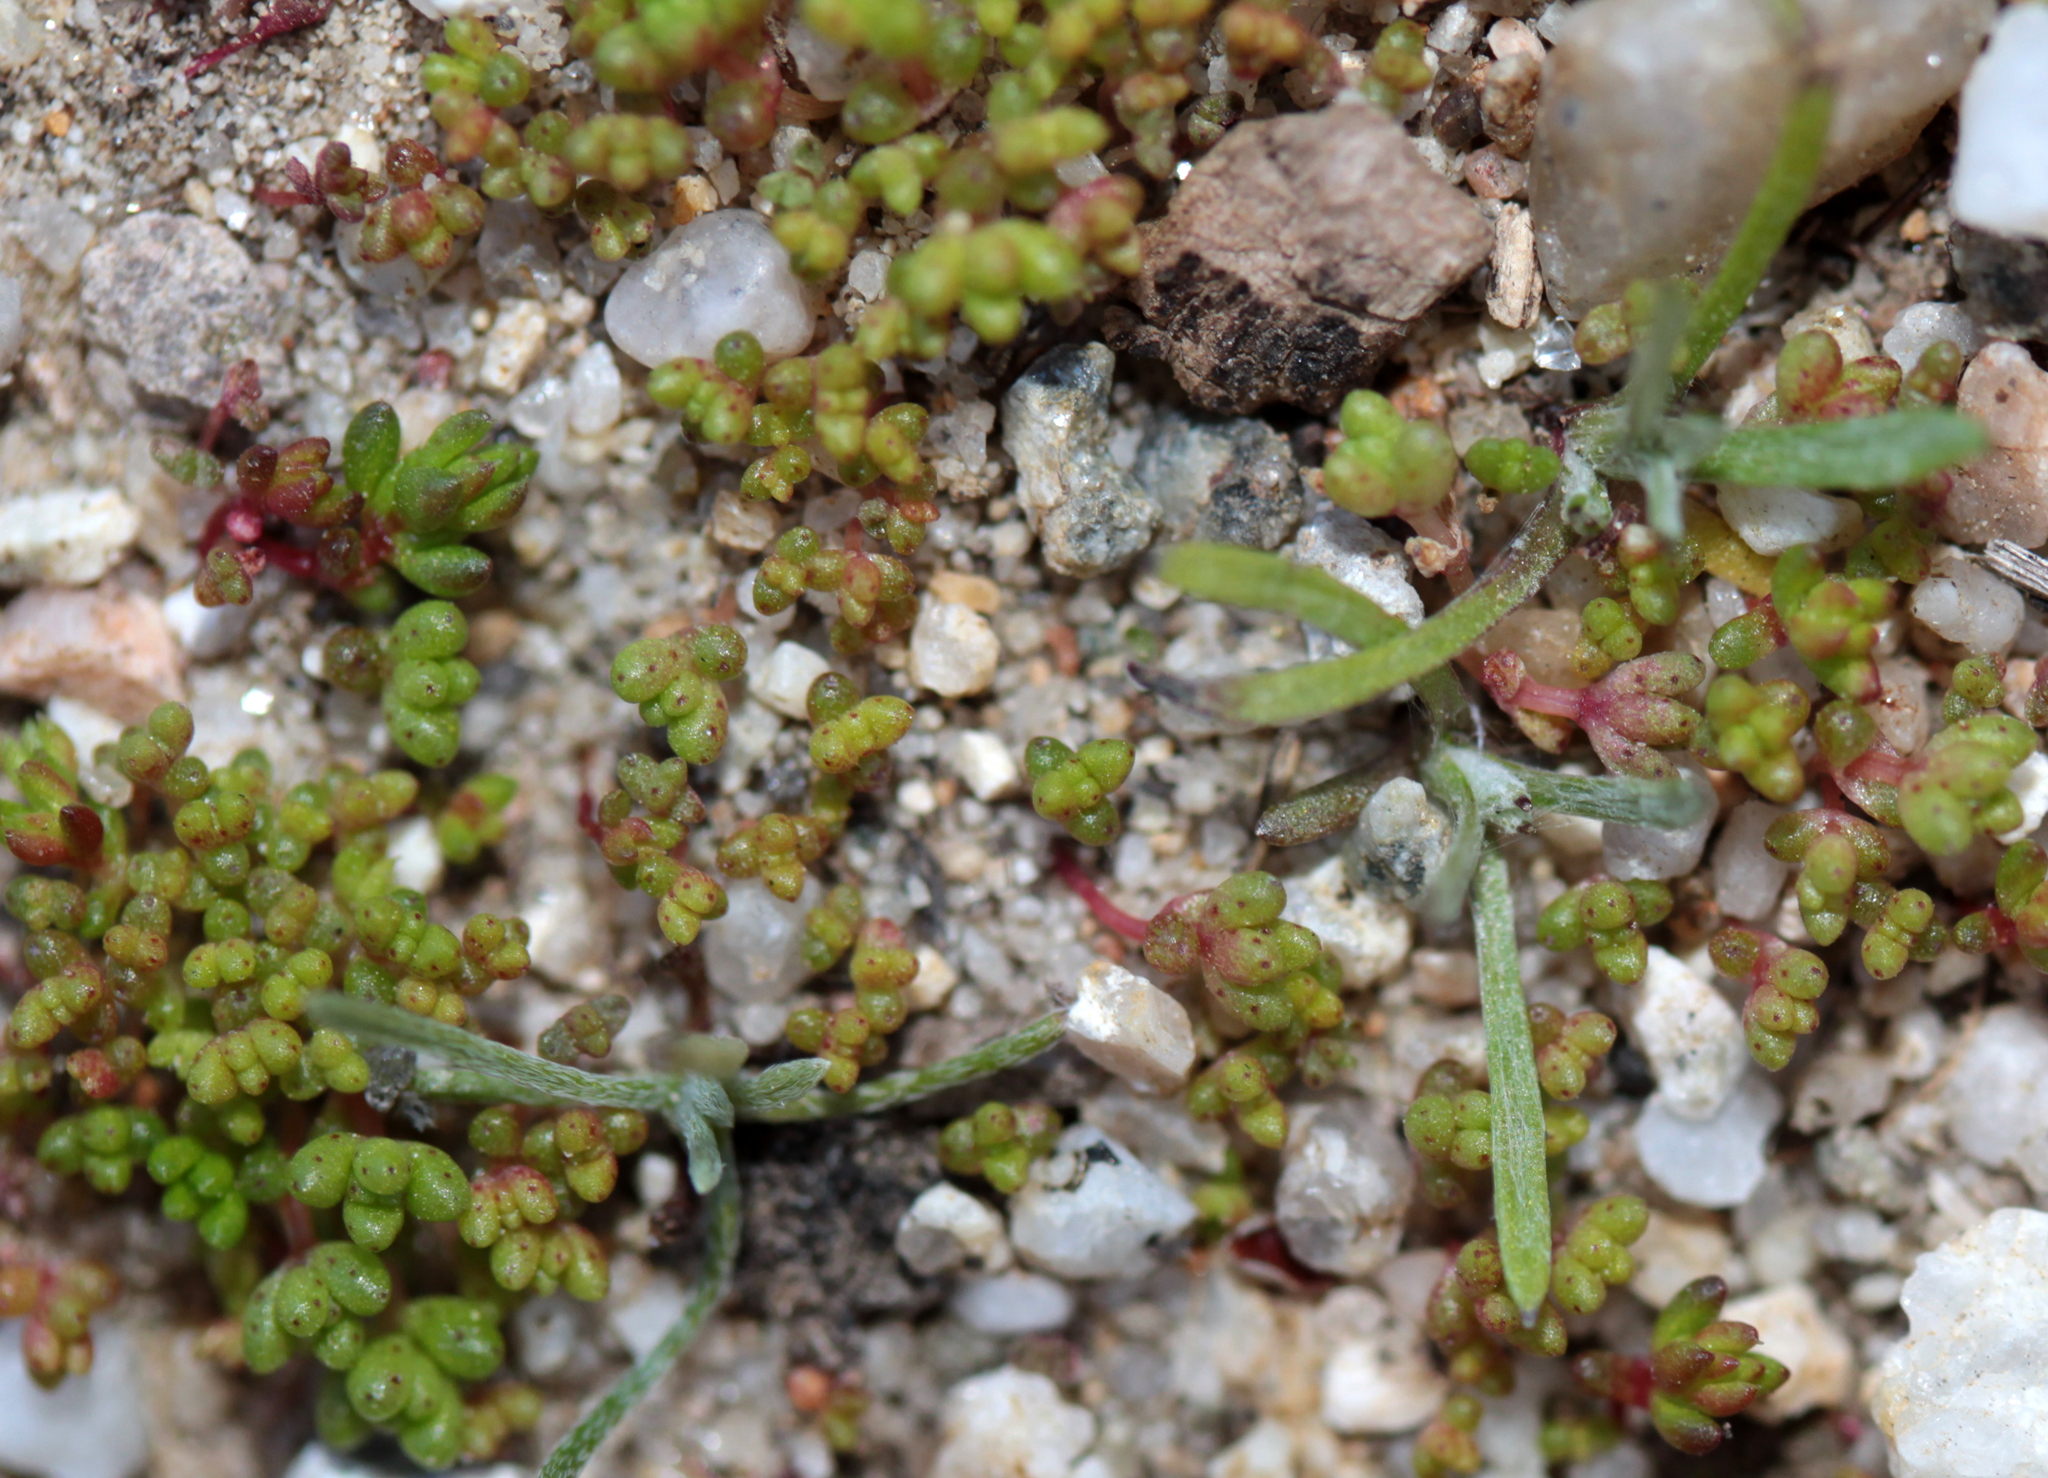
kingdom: Plantae
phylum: Tracheophyta
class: Magnoliopsida
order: Saxifragales
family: Crassulaceae
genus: Crassula
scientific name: Crassula connata
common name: Erect pygmyweed
